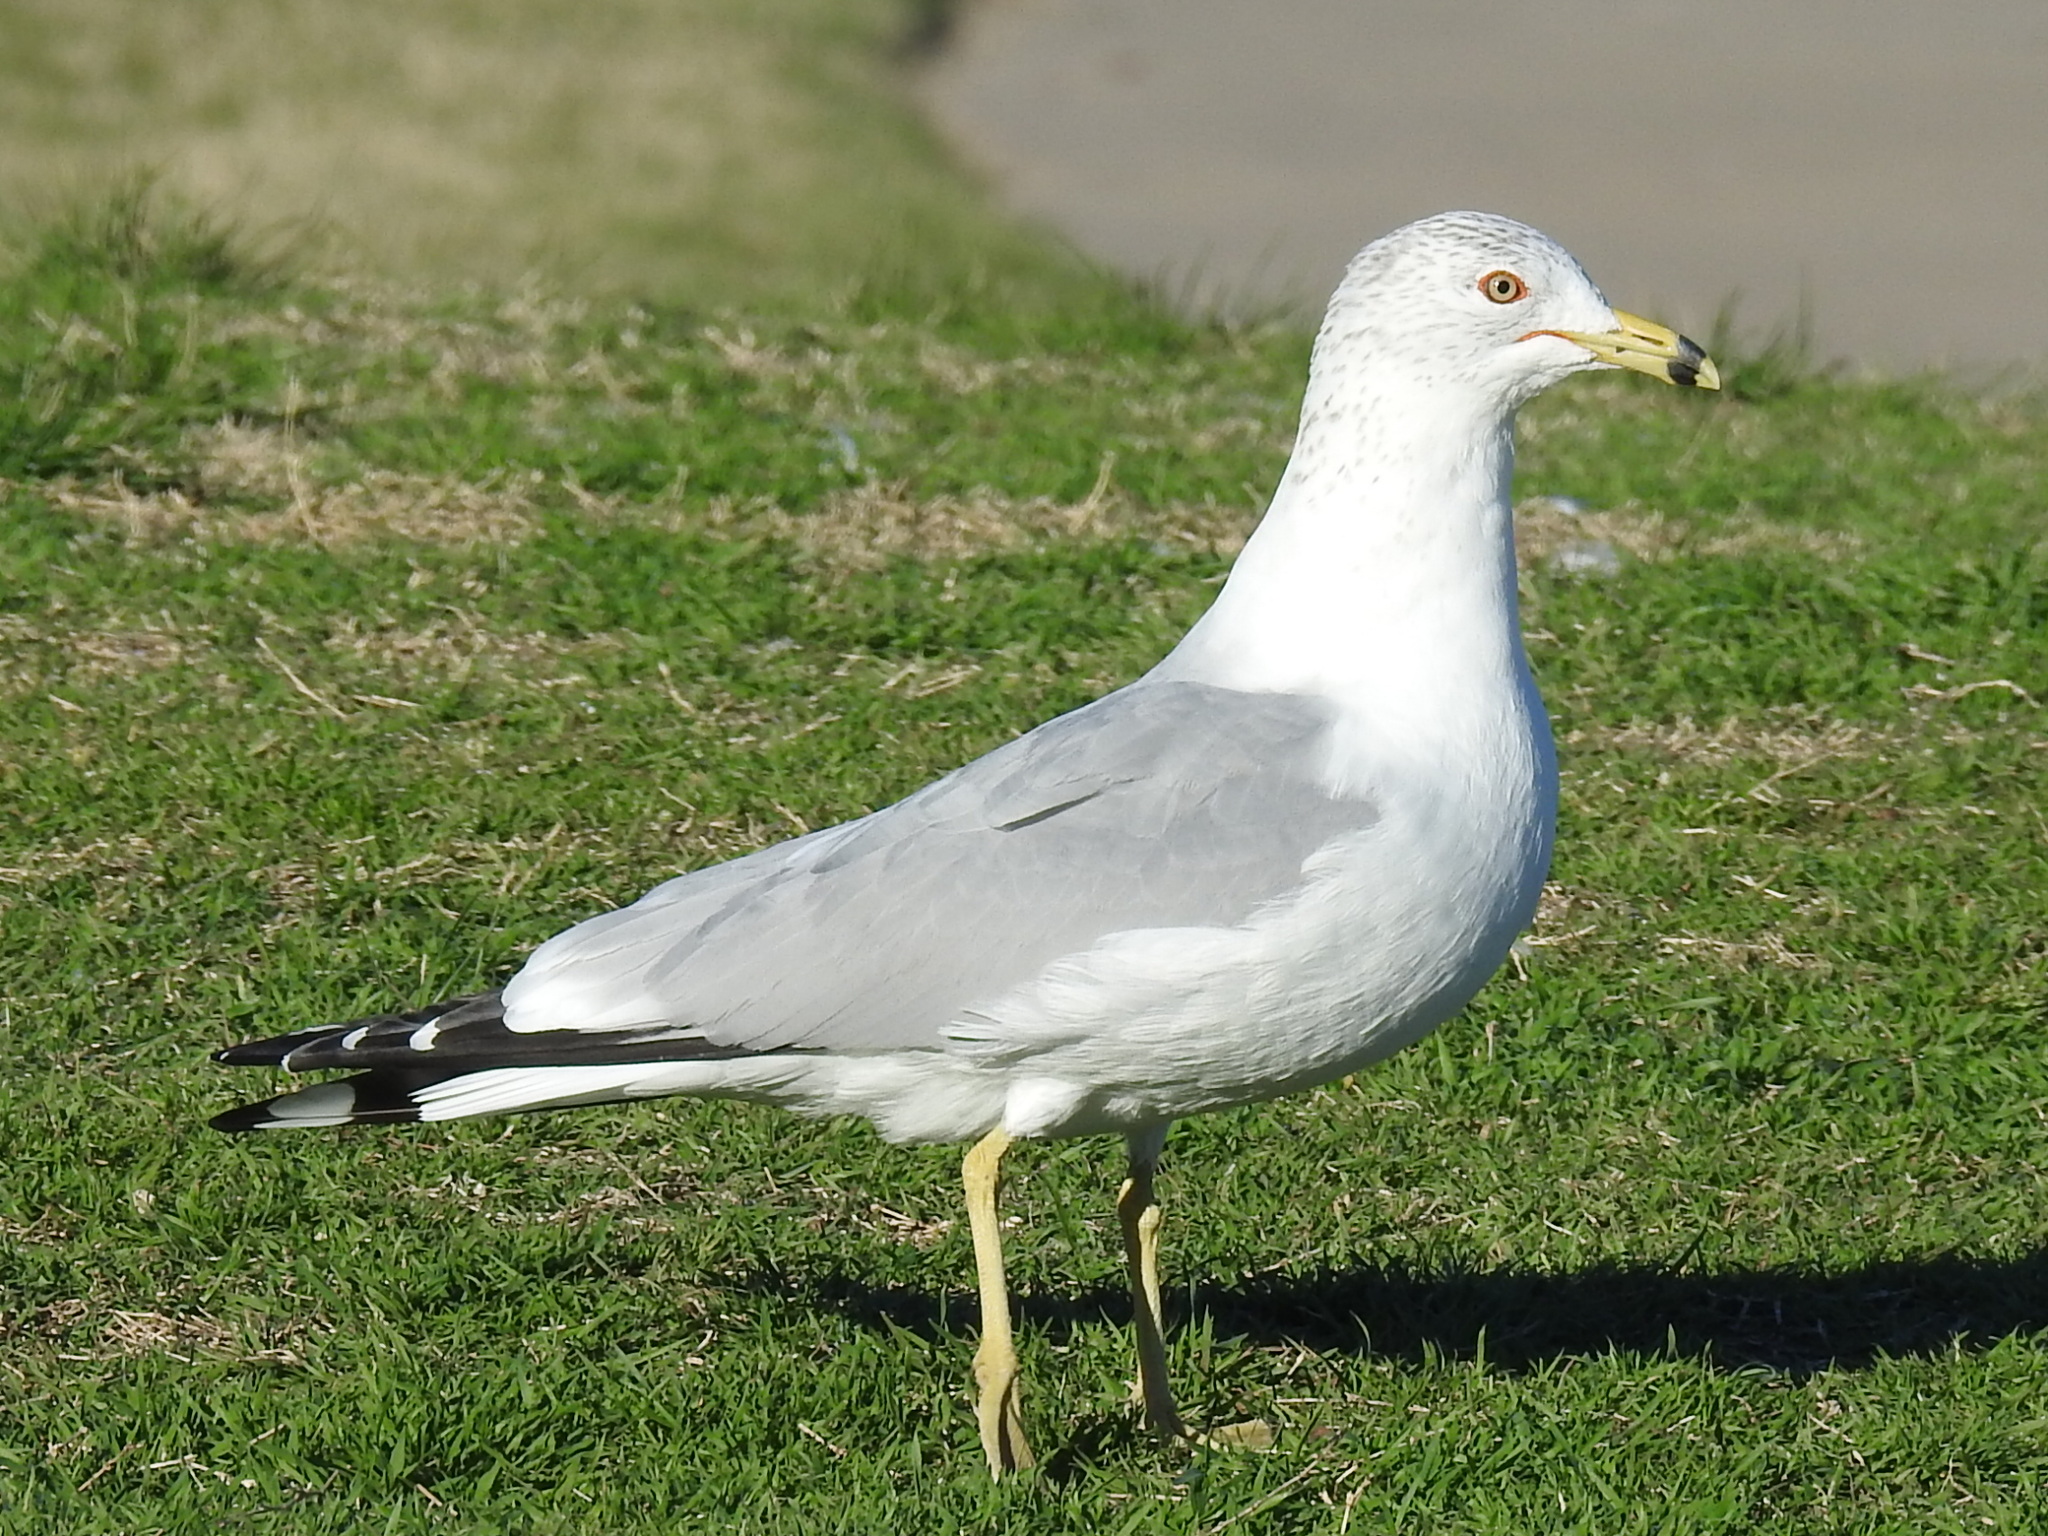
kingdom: Animalia
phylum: Chordata
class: Aves
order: Charadriiformes
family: Laridae
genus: Larus
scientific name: Larus delawarensis
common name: Ring-billed gull
